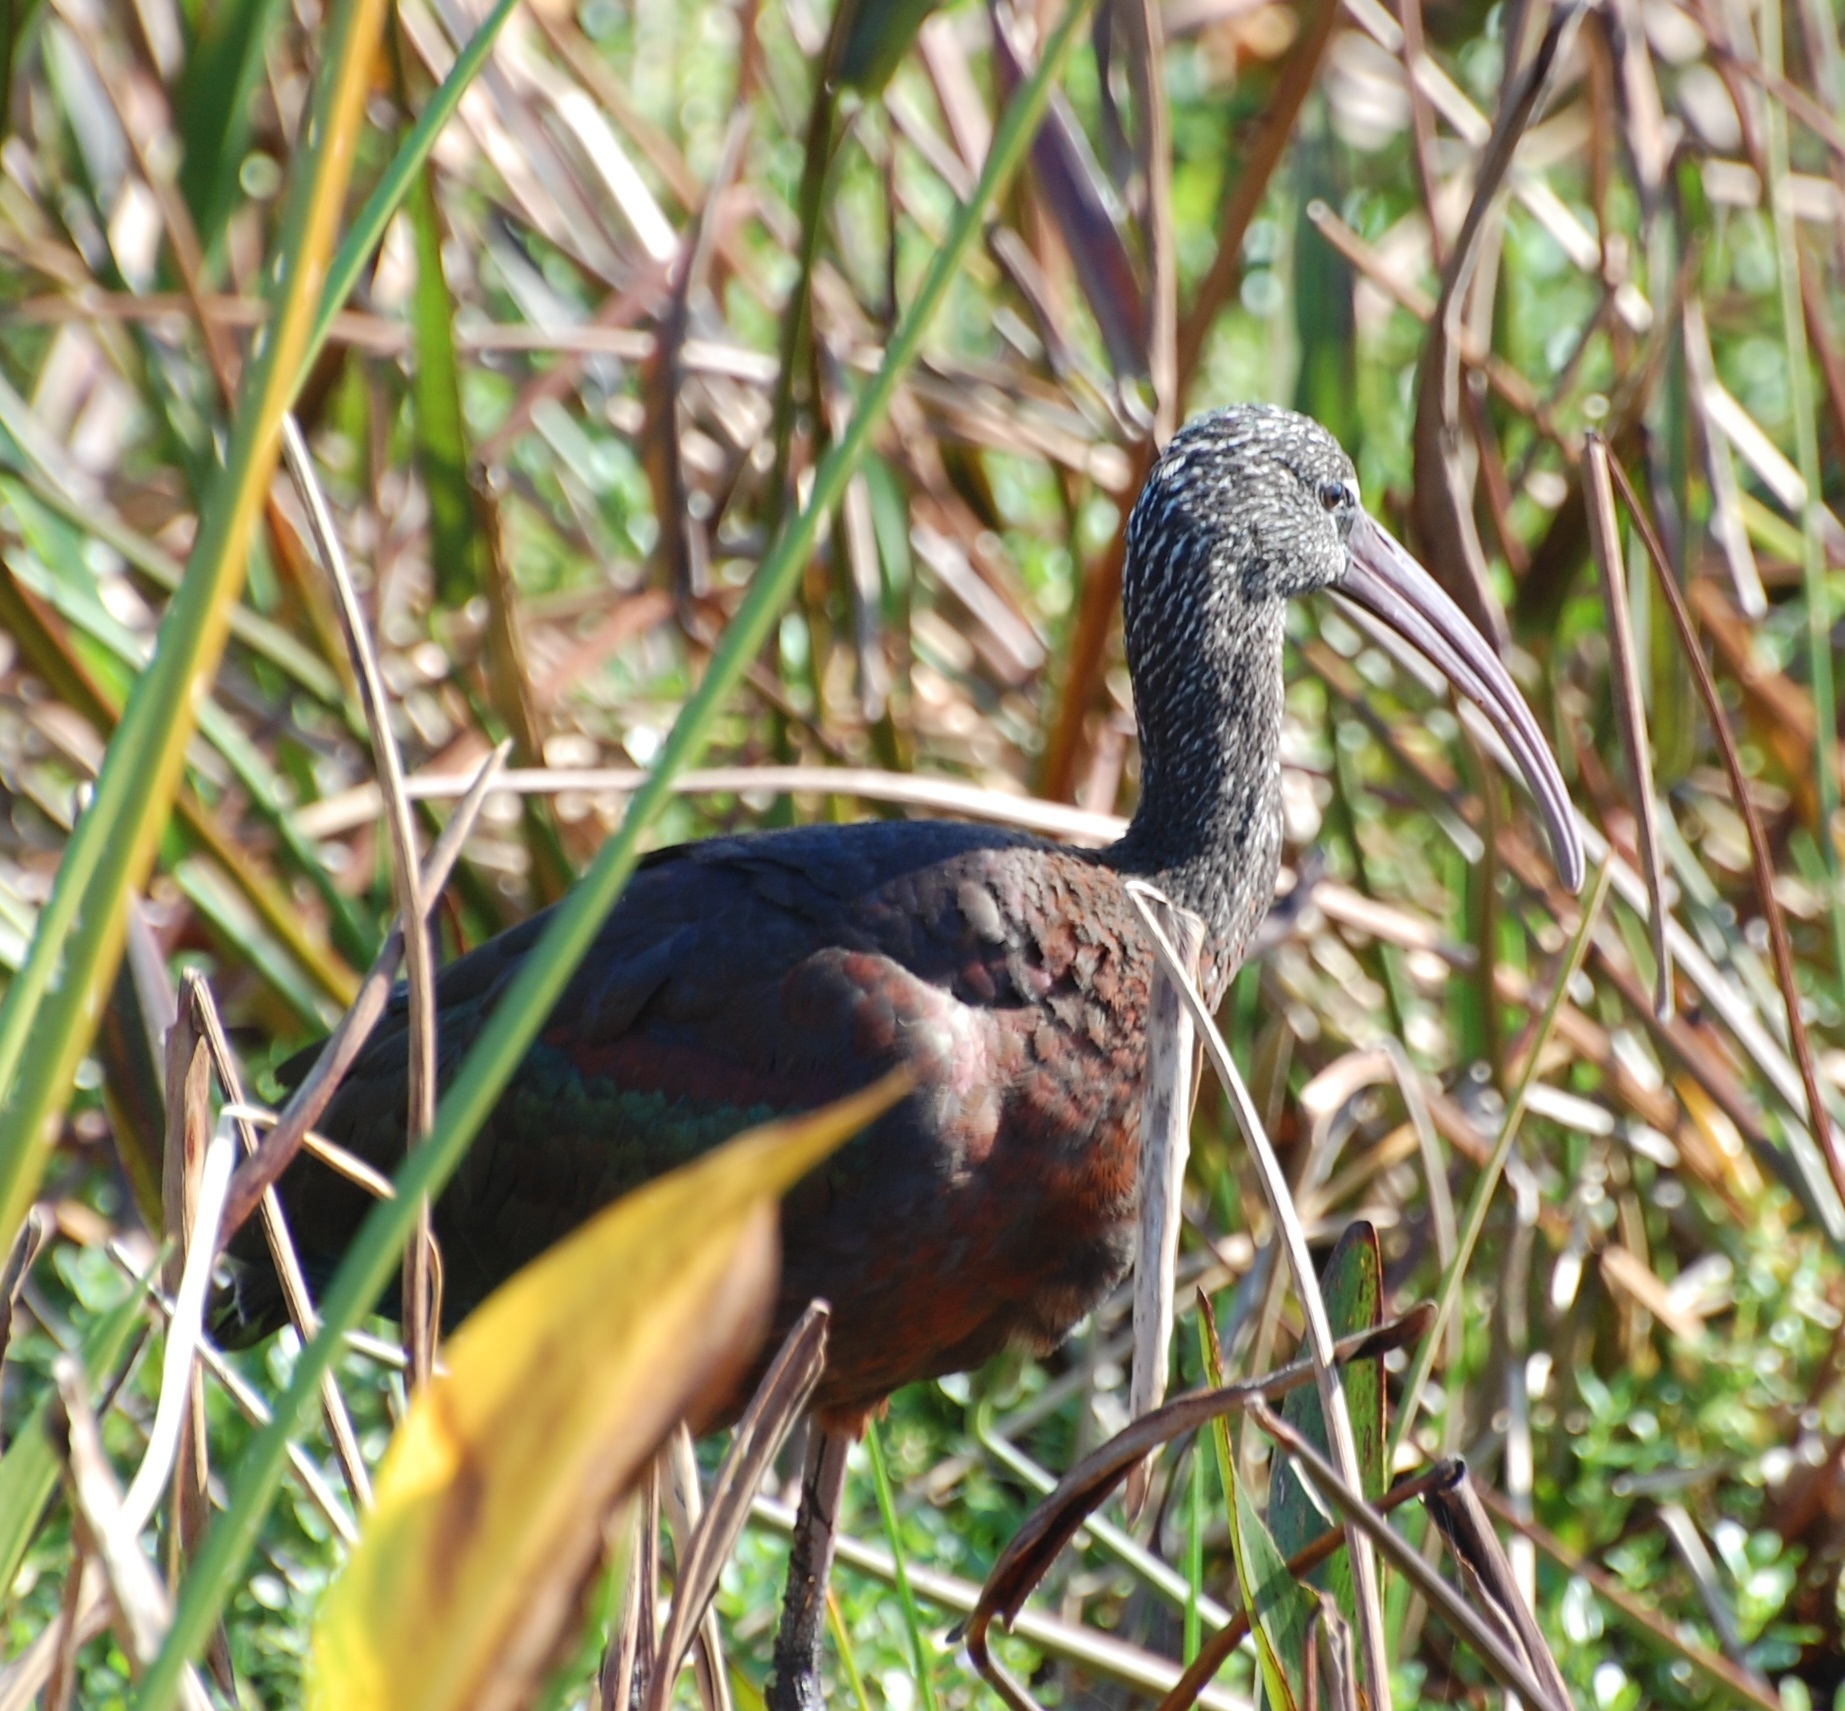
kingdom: Animalia
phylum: Chordata
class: Aves
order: Pelecaniformes
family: Threskiornithidae
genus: Plegadis
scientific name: Plegadis falcinellus
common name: Glossy ibis
